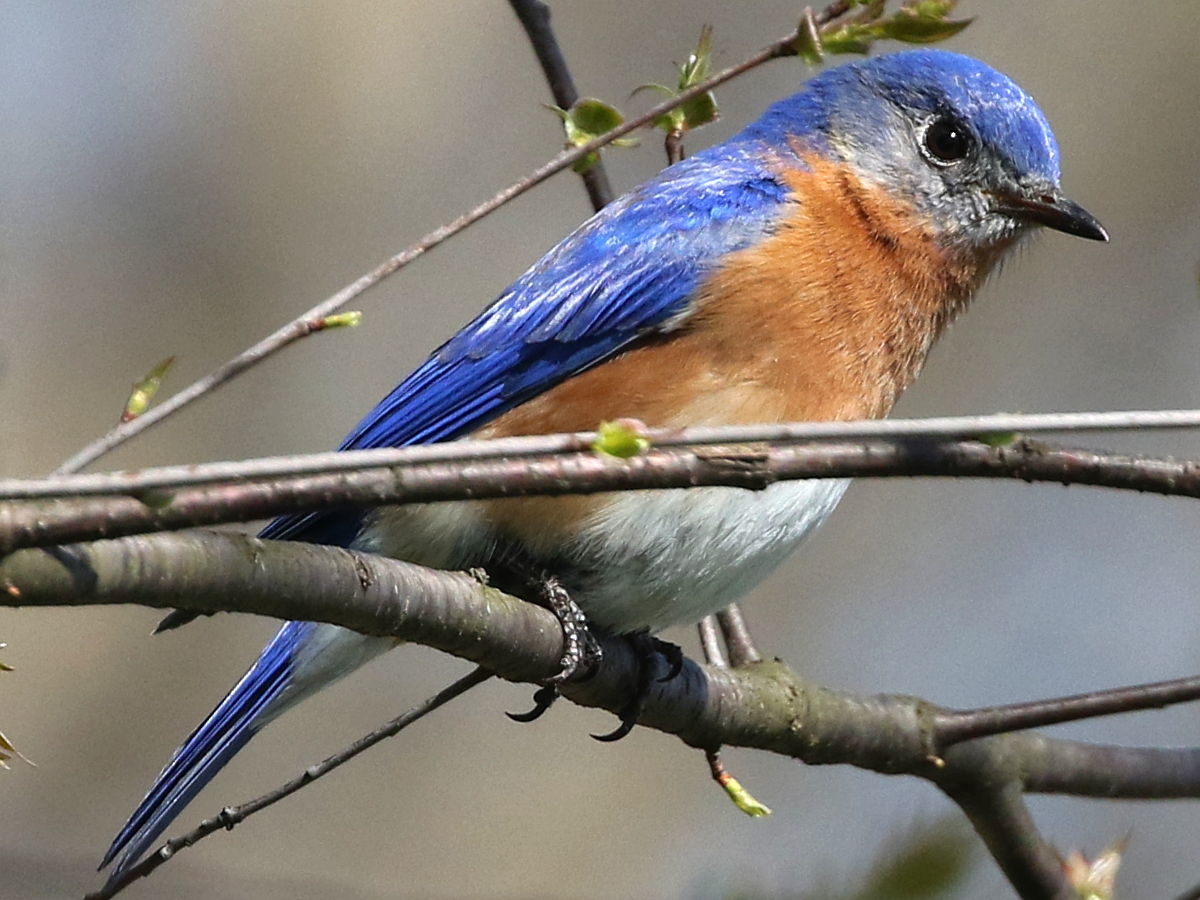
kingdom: Animalia
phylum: Chordata
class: Aves
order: Passeriformes
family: Turdidae
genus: Sialia
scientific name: Sialia sialis
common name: Eastern bluebird
